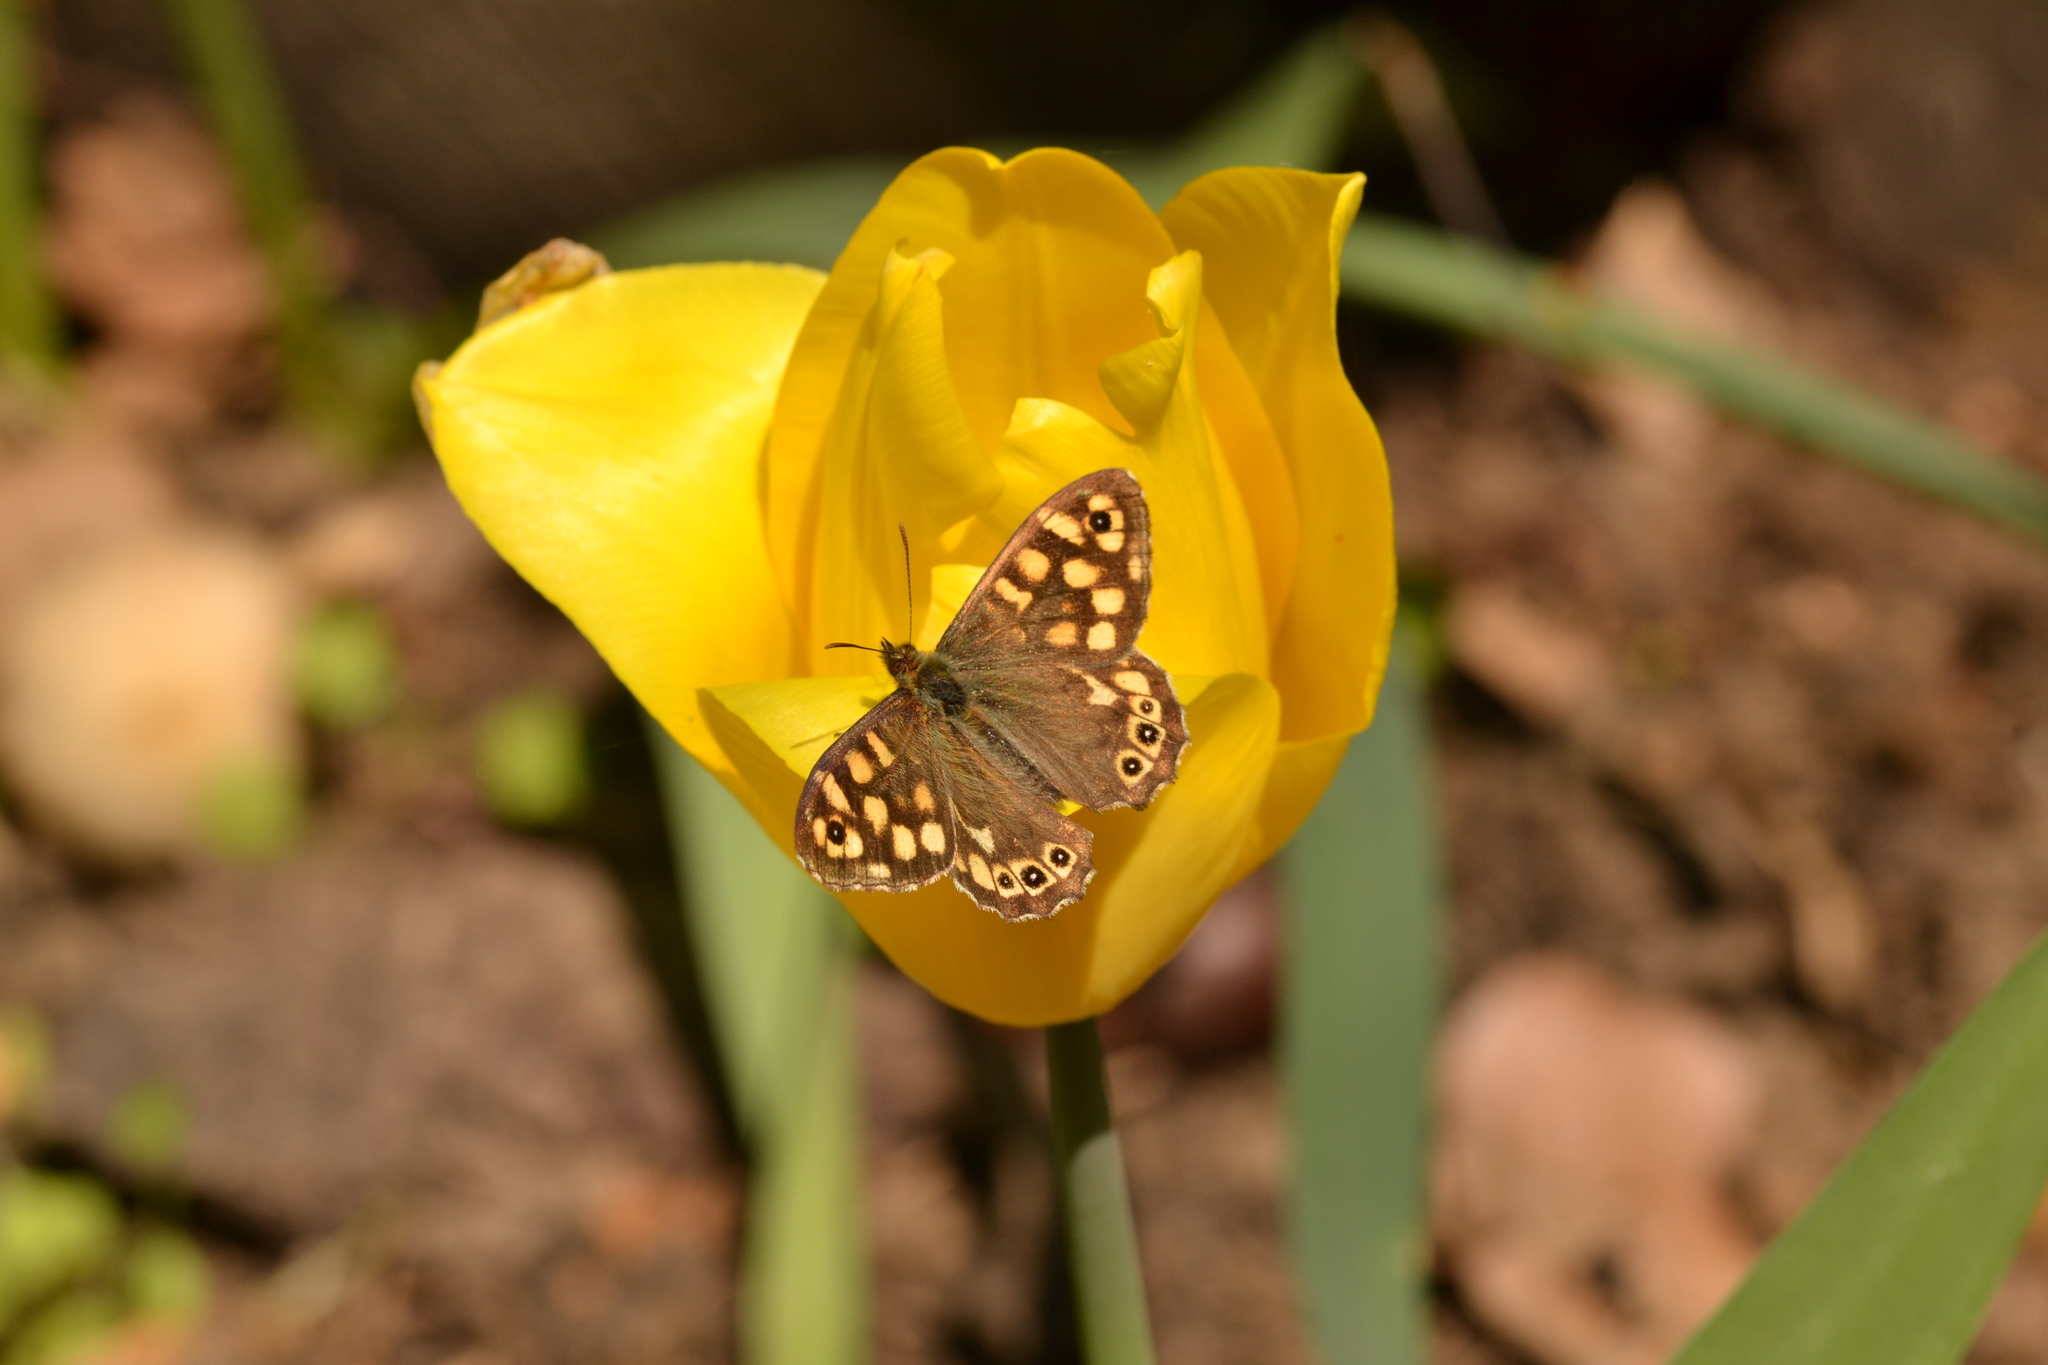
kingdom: Animalia
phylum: Arthropoda
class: Insecta
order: Lepidoptera
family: Nymphalidae
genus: Pararge
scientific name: Pararge aegeria
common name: Speckled wood
